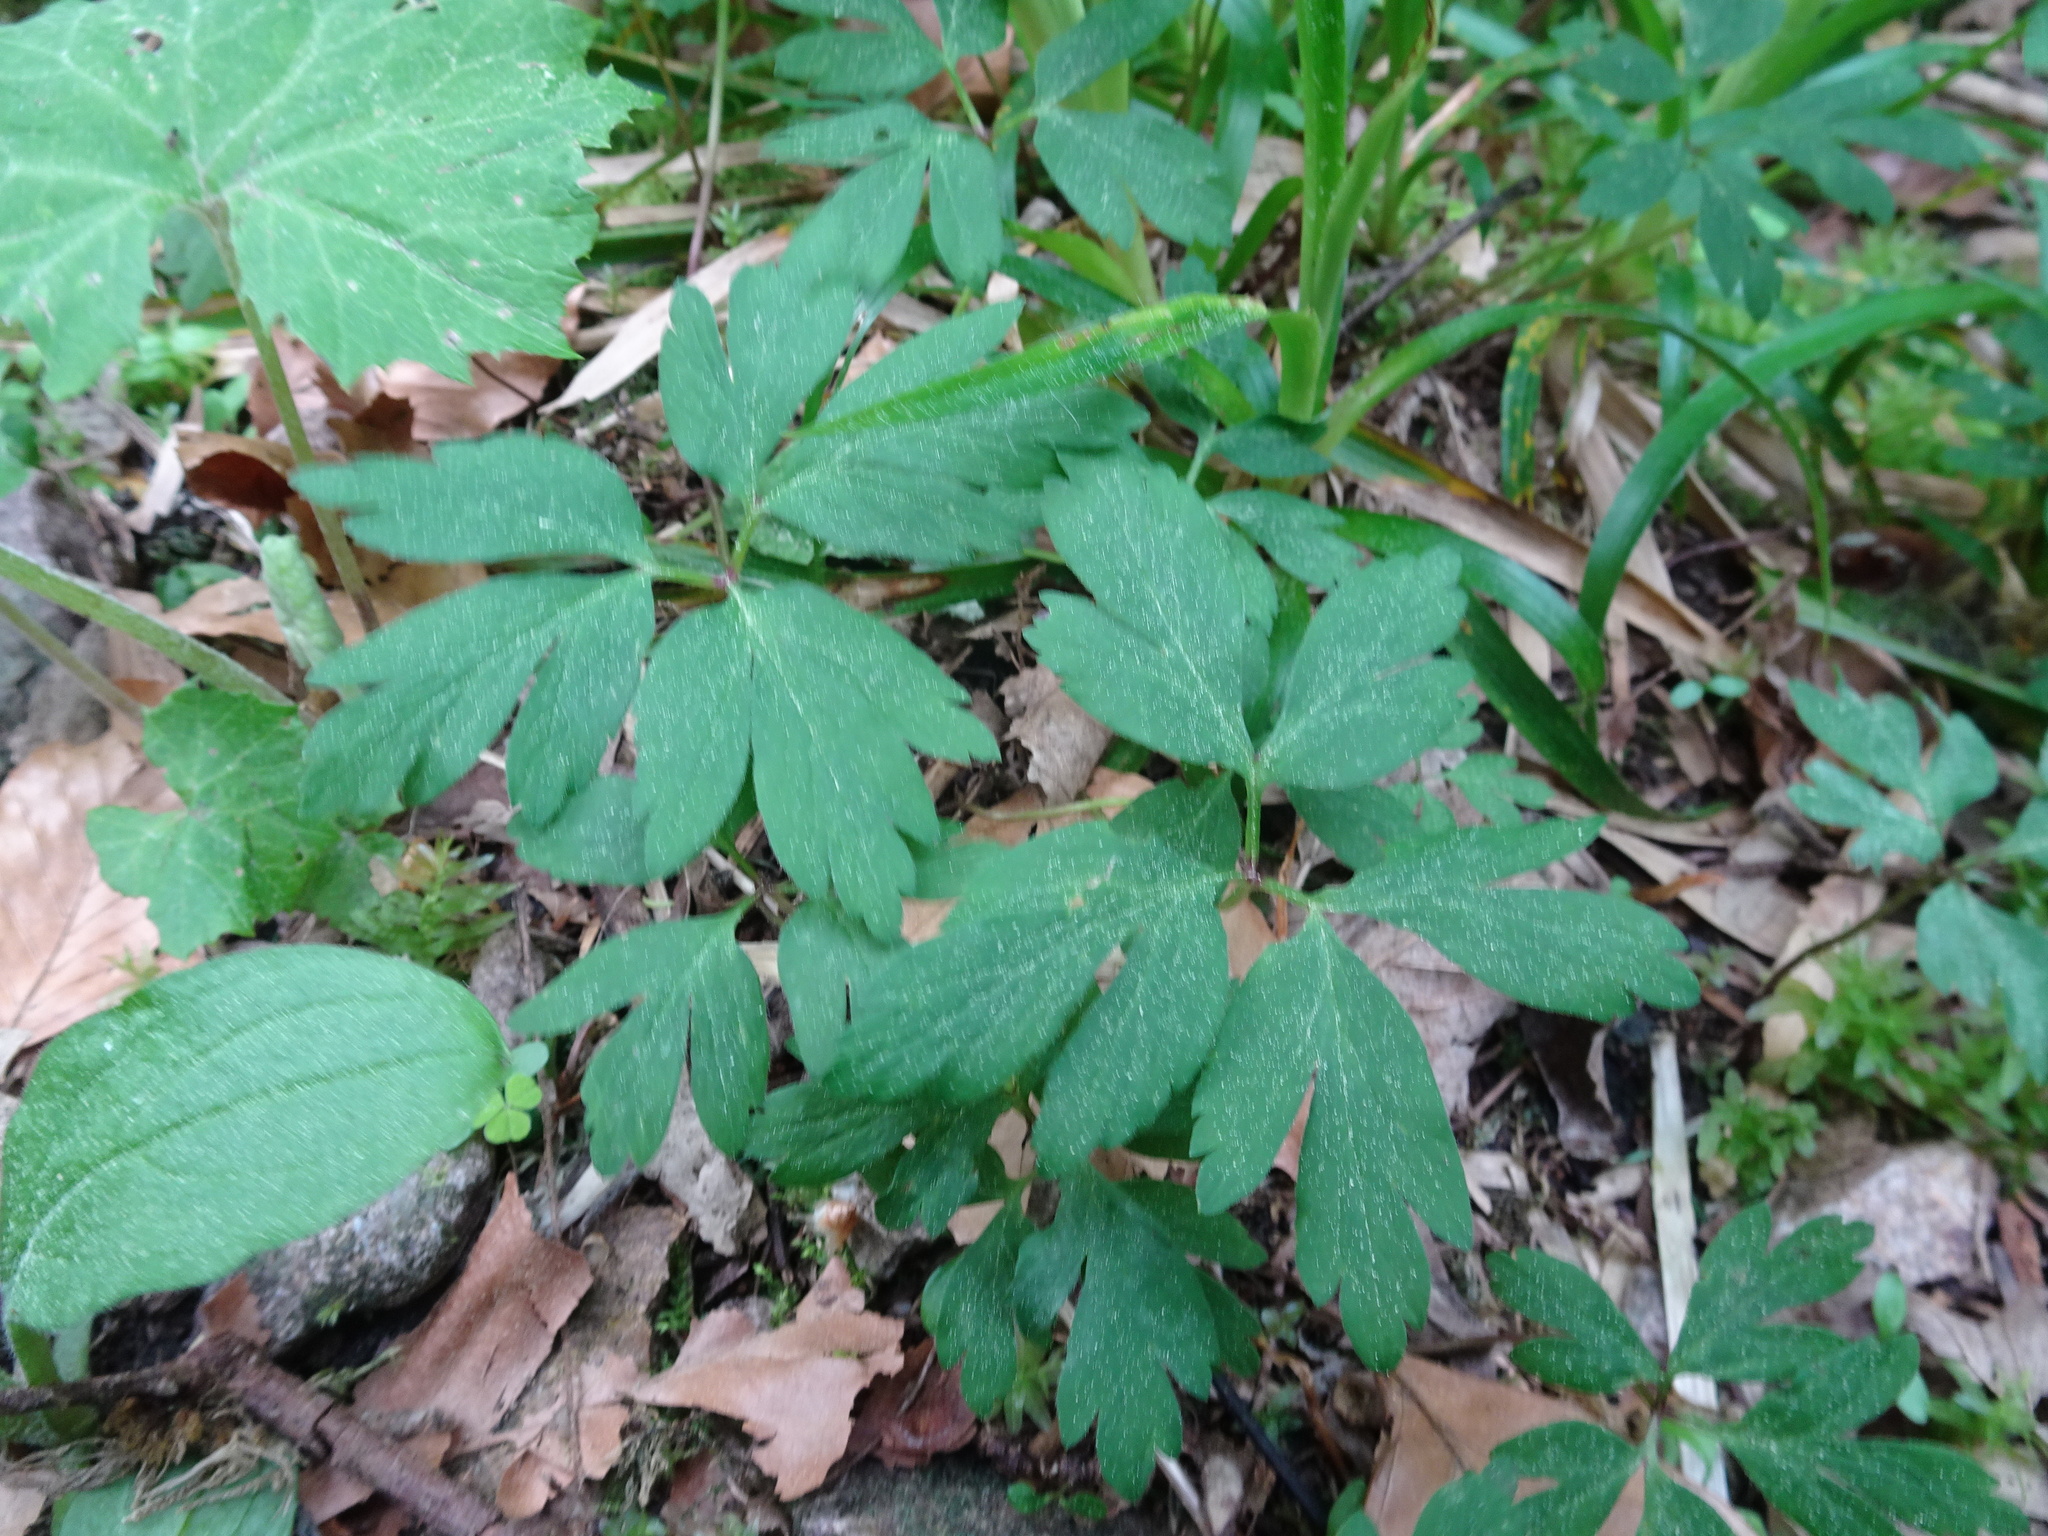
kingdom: Plantae
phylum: Tracheophyta
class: Magnoliopsida
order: Ranunculales
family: Ranunculaceae
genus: Anemone
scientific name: Anemone nemorosa
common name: Wood anemone
